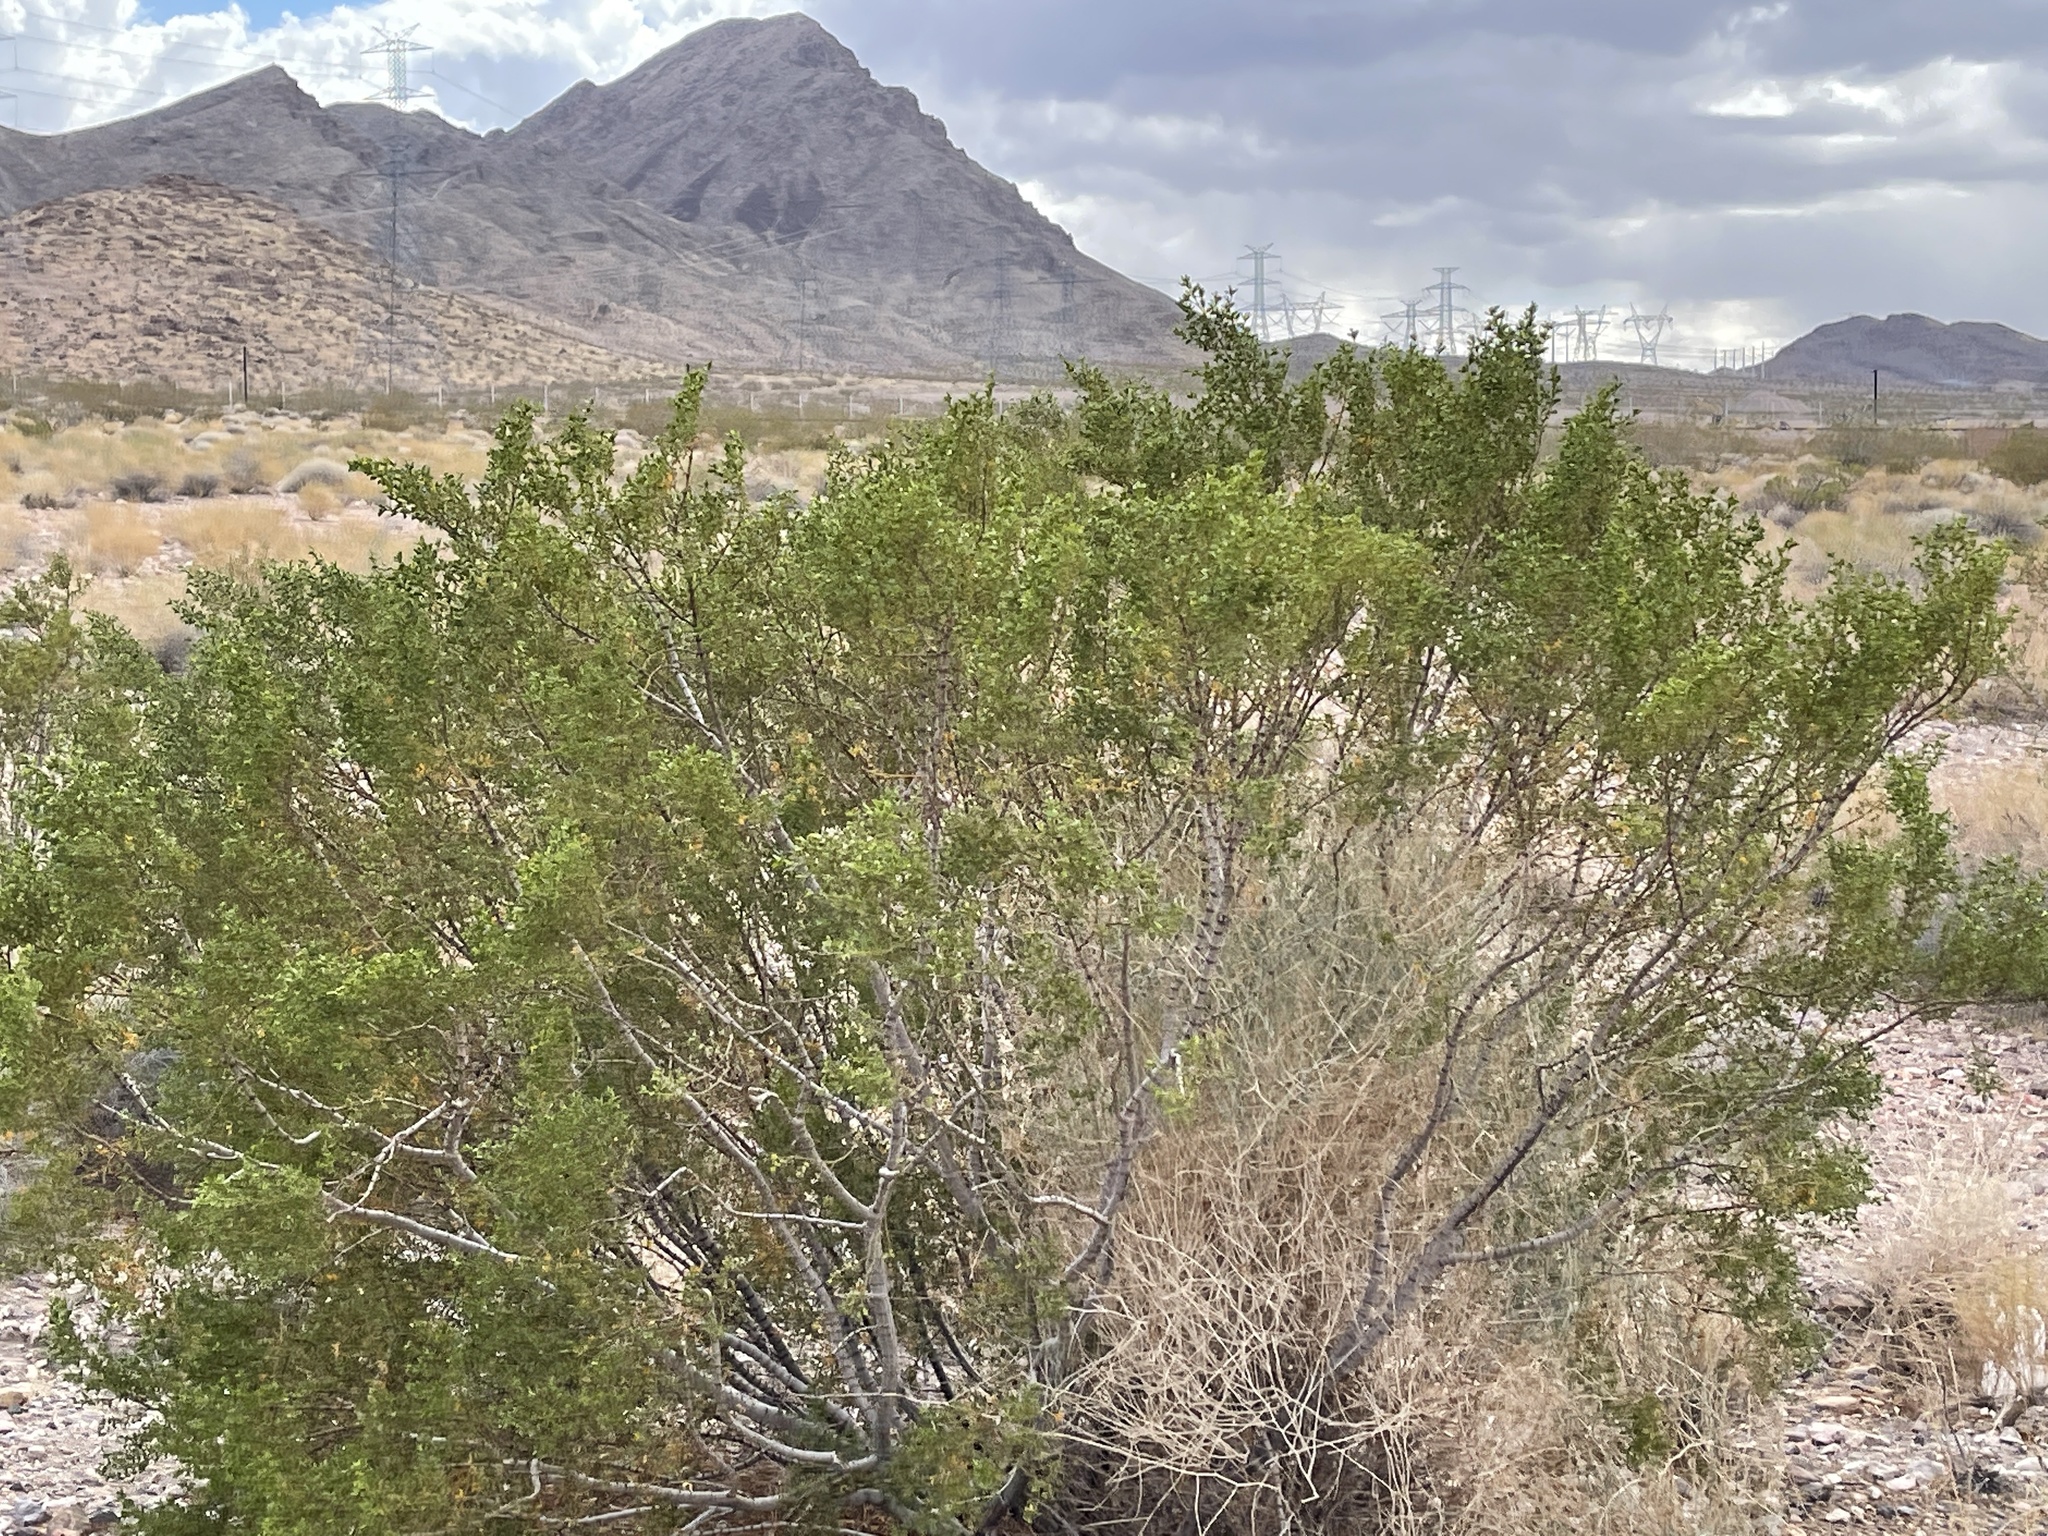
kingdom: Plantae
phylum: Tracheophyta
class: Magnoliopsida
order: Zygophyllales
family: Zygophyllaceae
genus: Larrea
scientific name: Larrea tridentata
